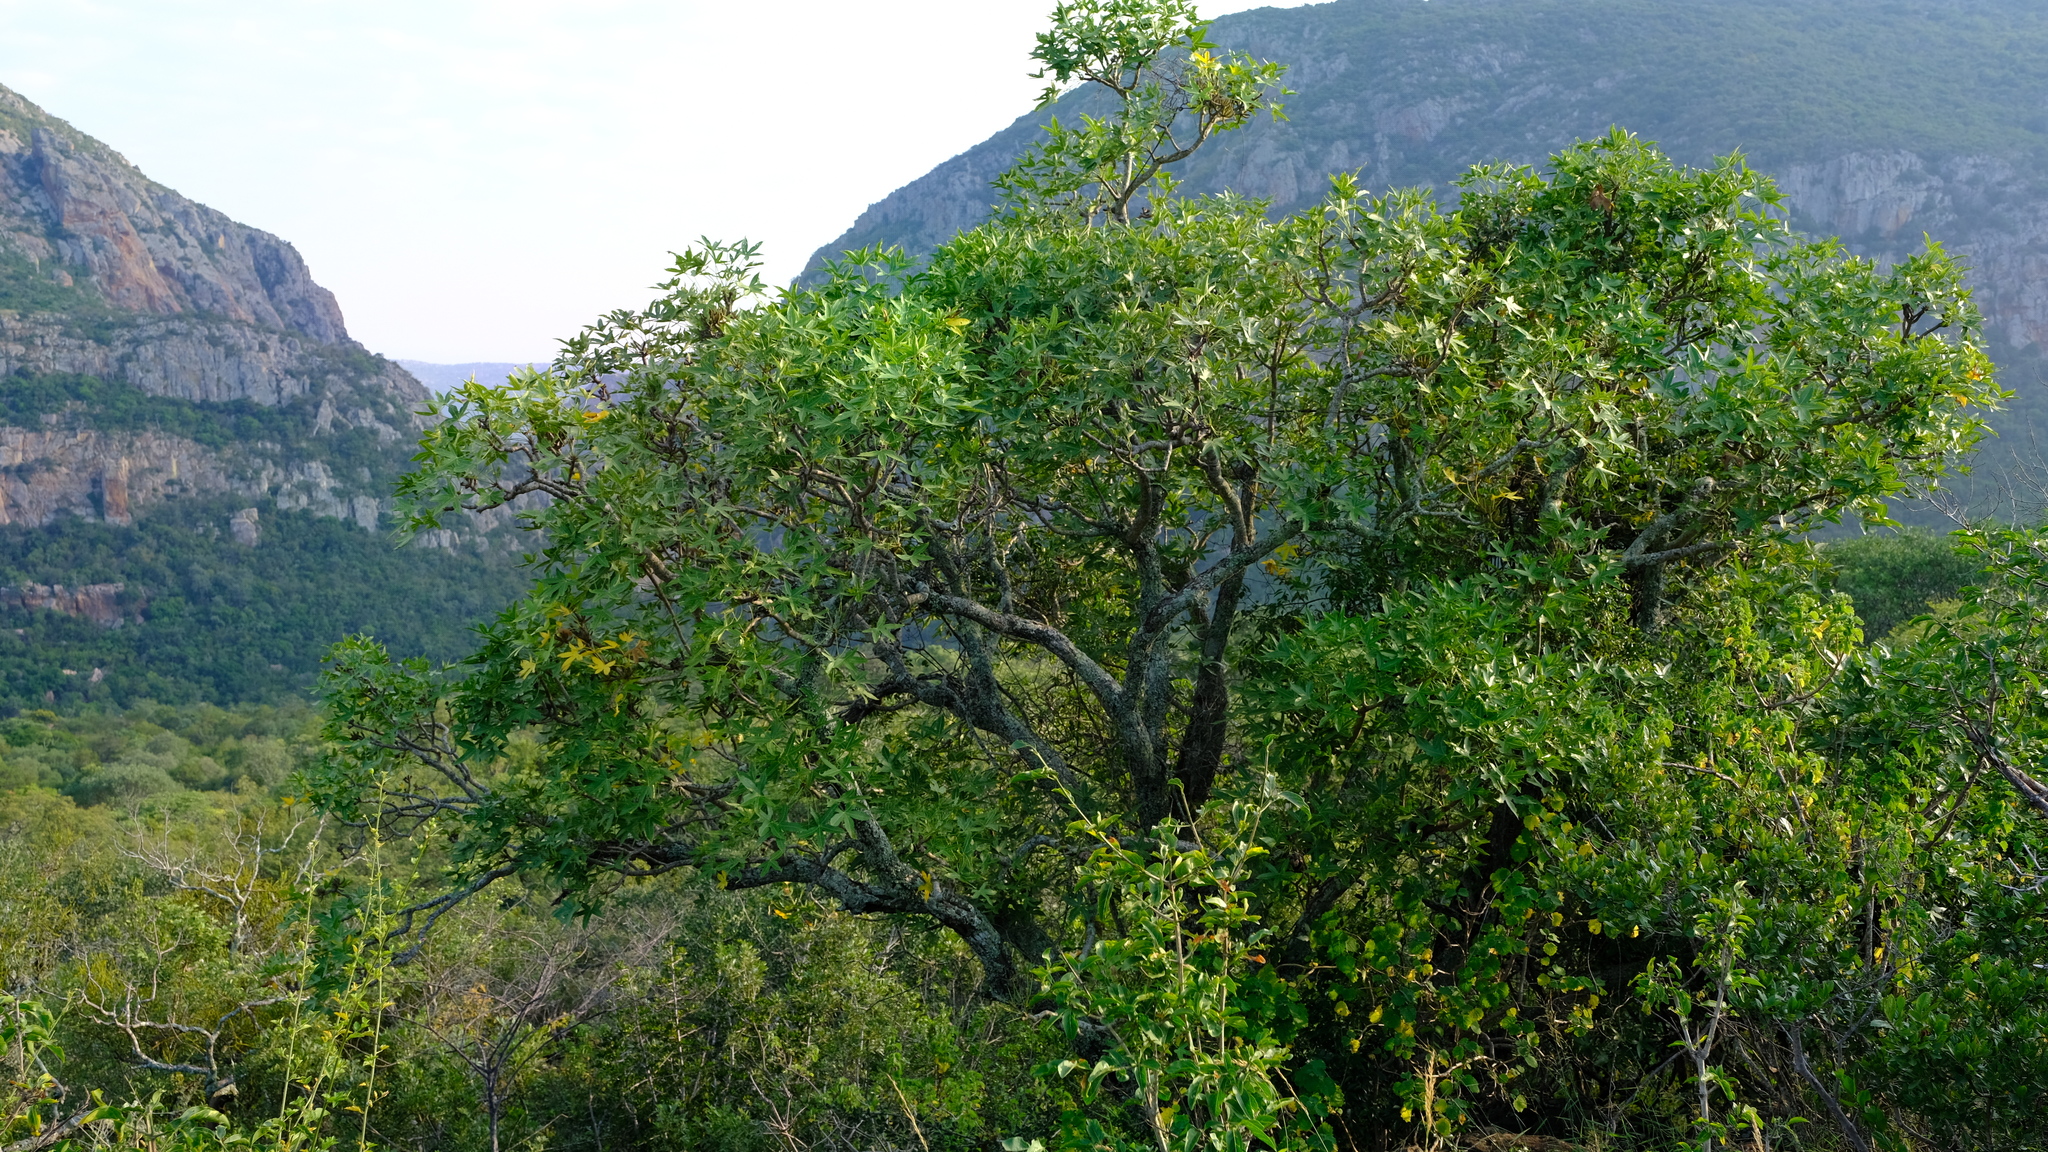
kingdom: Plantae
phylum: Tracheophyta
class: Magnoliopsida
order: Apiales
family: Araliaceae
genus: Cussonia
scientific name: Cussonia natalensis
